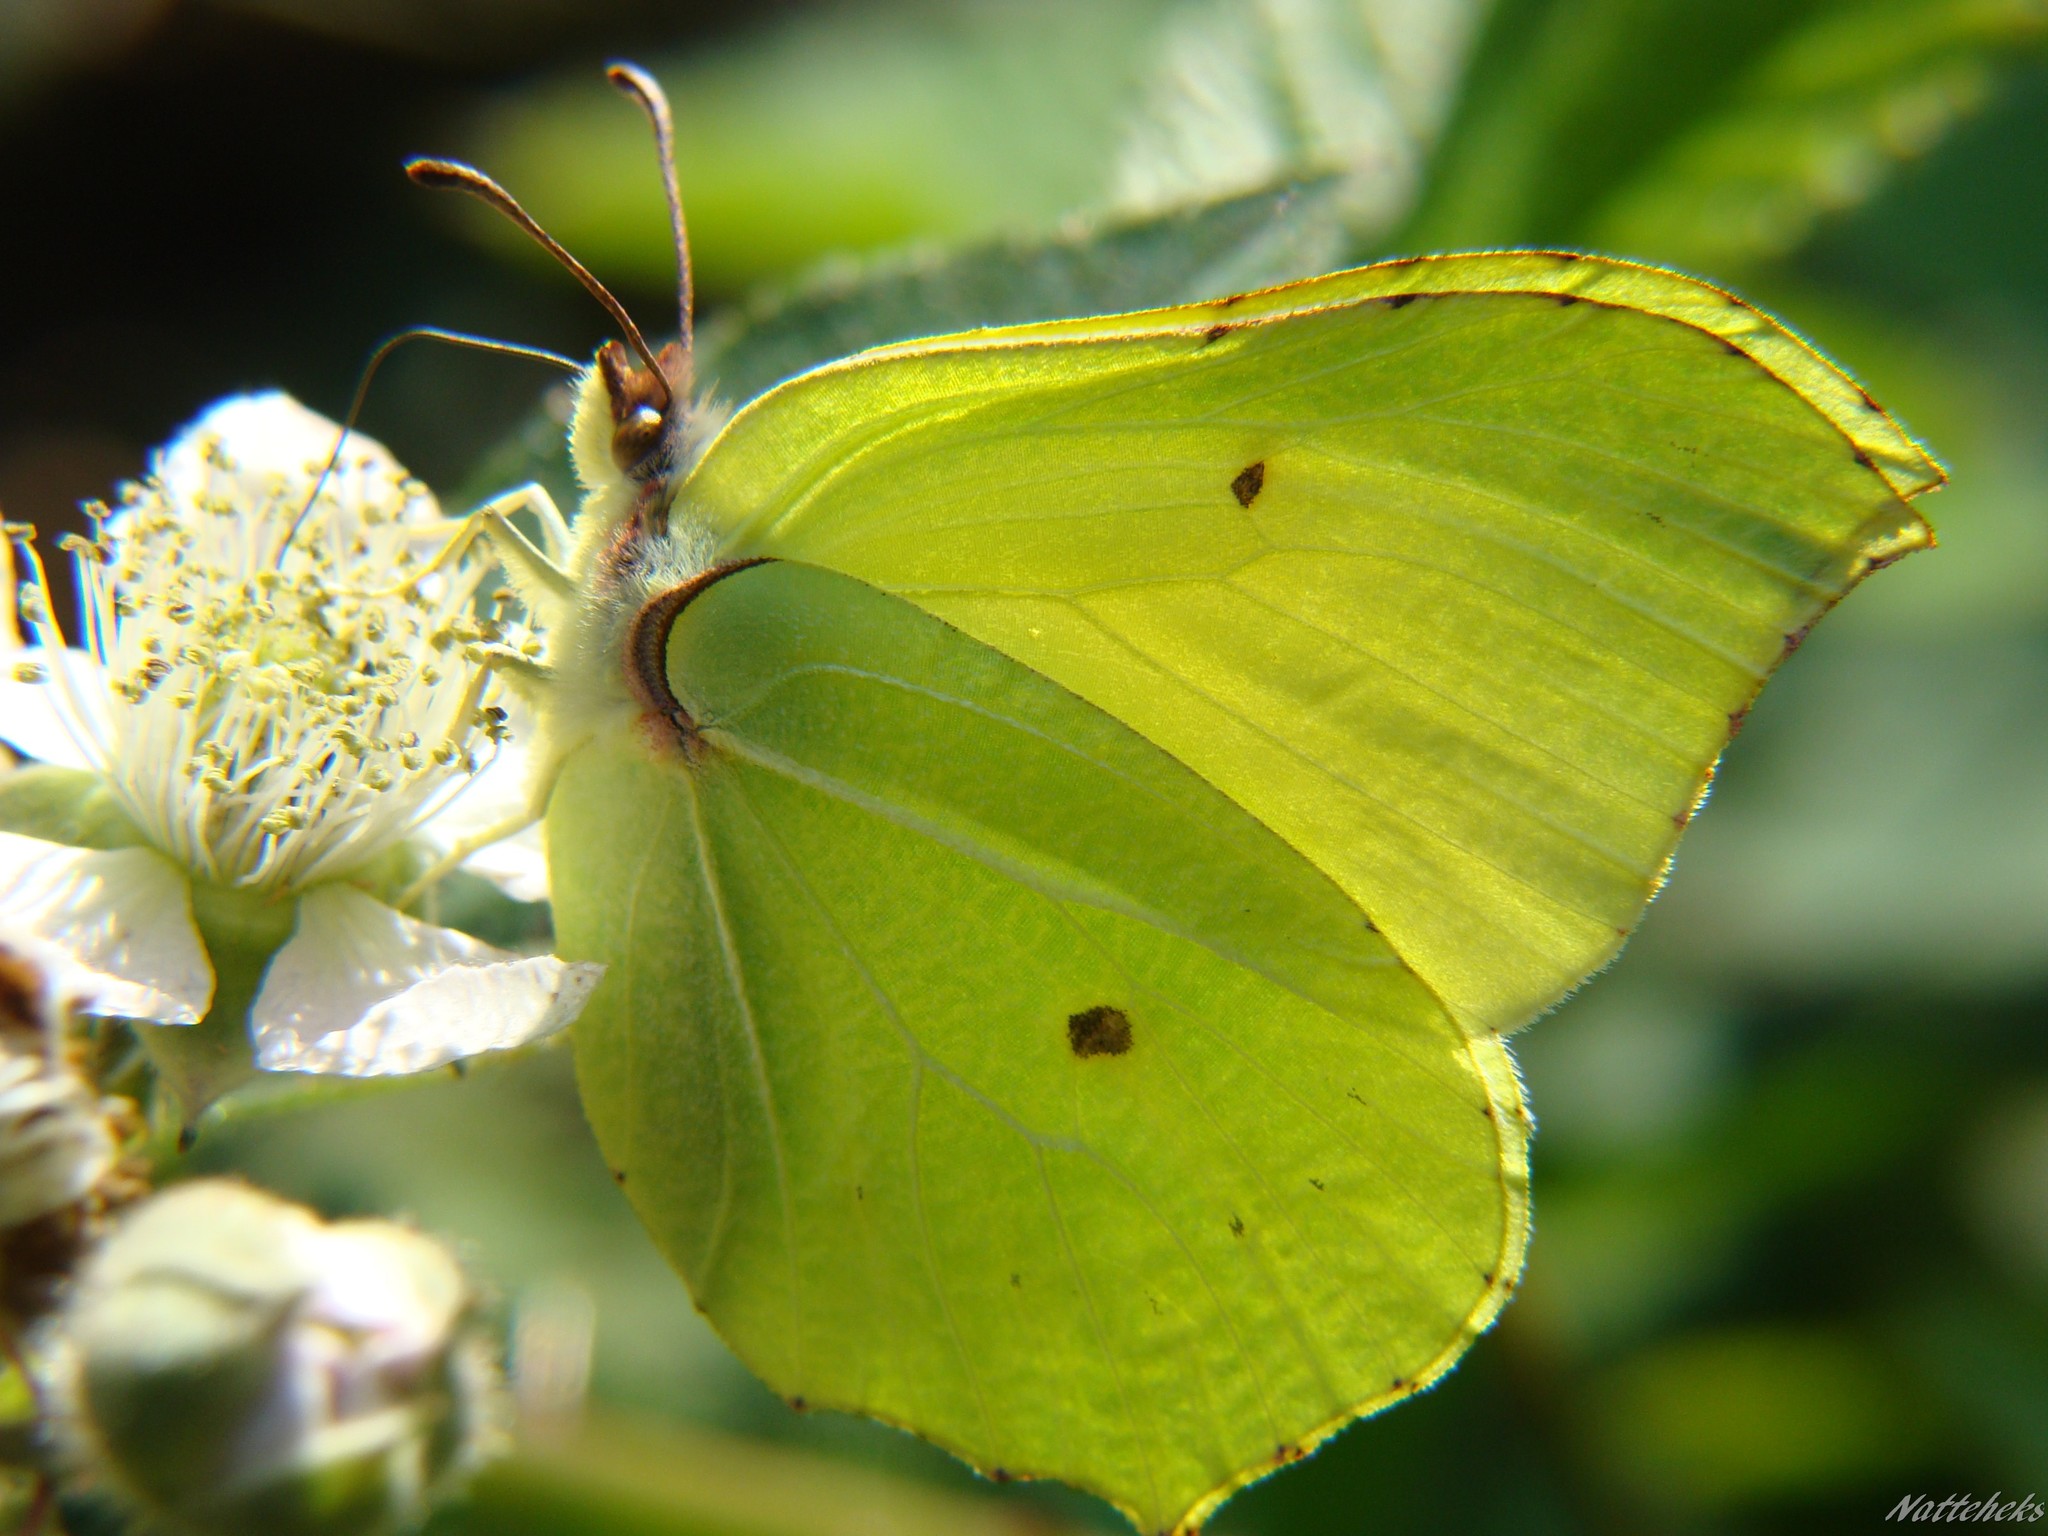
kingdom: Animalia
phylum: Arthropoda
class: Insecta
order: Lepidoptera
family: Pieridae
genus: Gonepteryx
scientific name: Gonepteryx rhamni
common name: Brimstone
